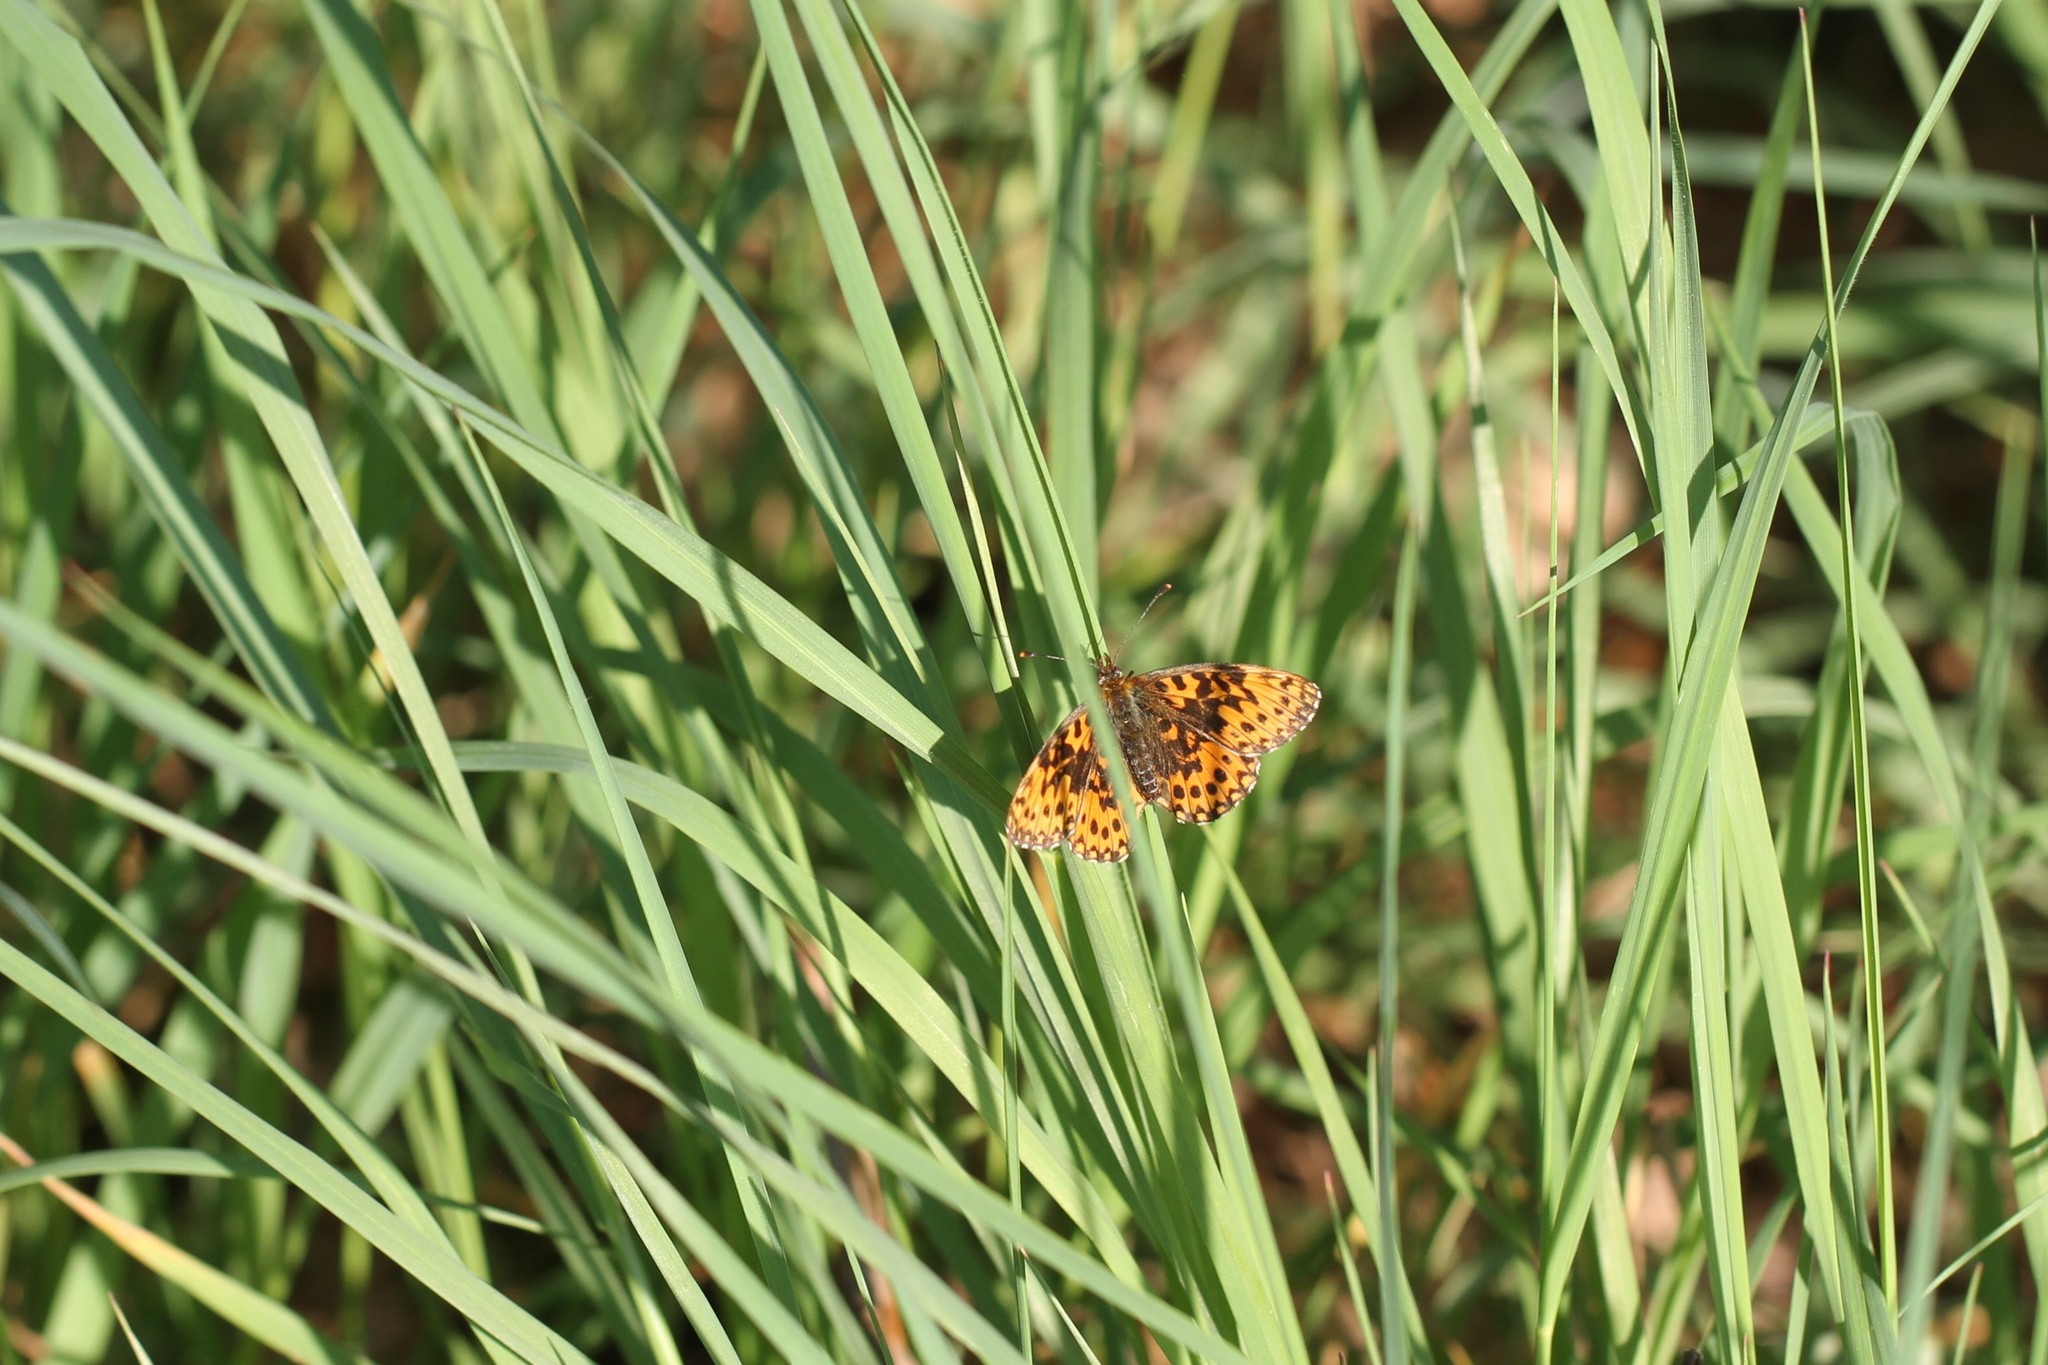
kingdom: Animalia
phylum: Arthropoda
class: Insecta
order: Lepidoptera
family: Nymphalidae
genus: Boloria
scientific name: Boloria dia
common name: Weaver's fritillary
